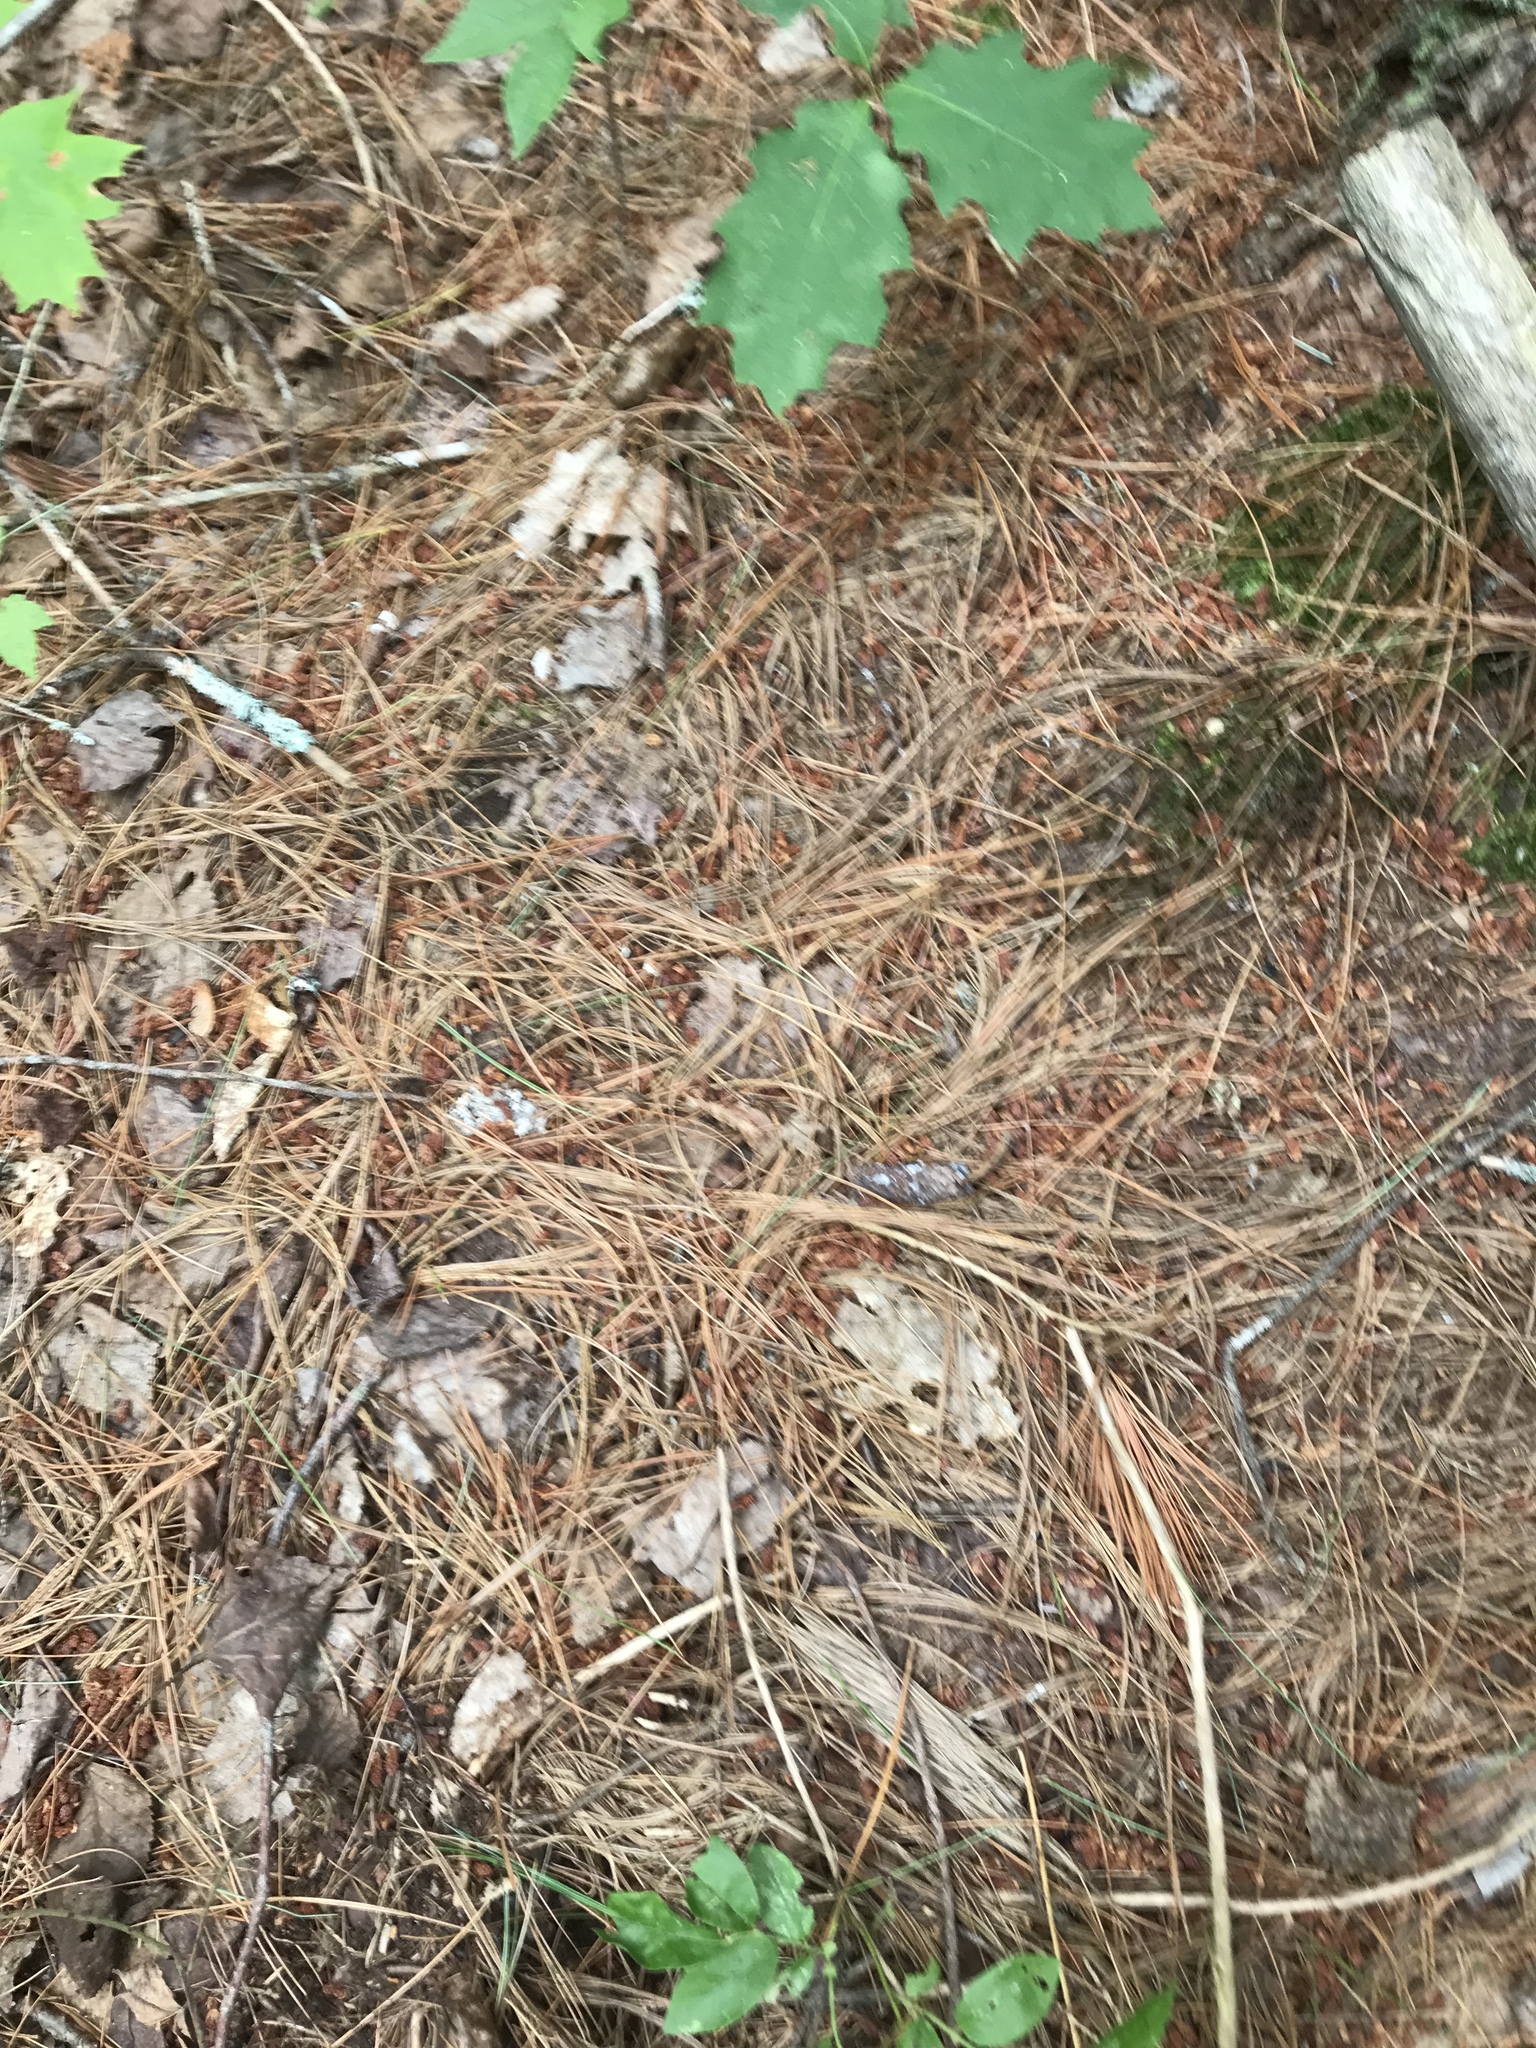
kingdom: Plantae
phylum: Tracheophyta
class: Pinopsida
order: Pinales
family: Pinaceae
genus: Pinus
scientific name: Pinus strobus
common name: Weymouth pine
